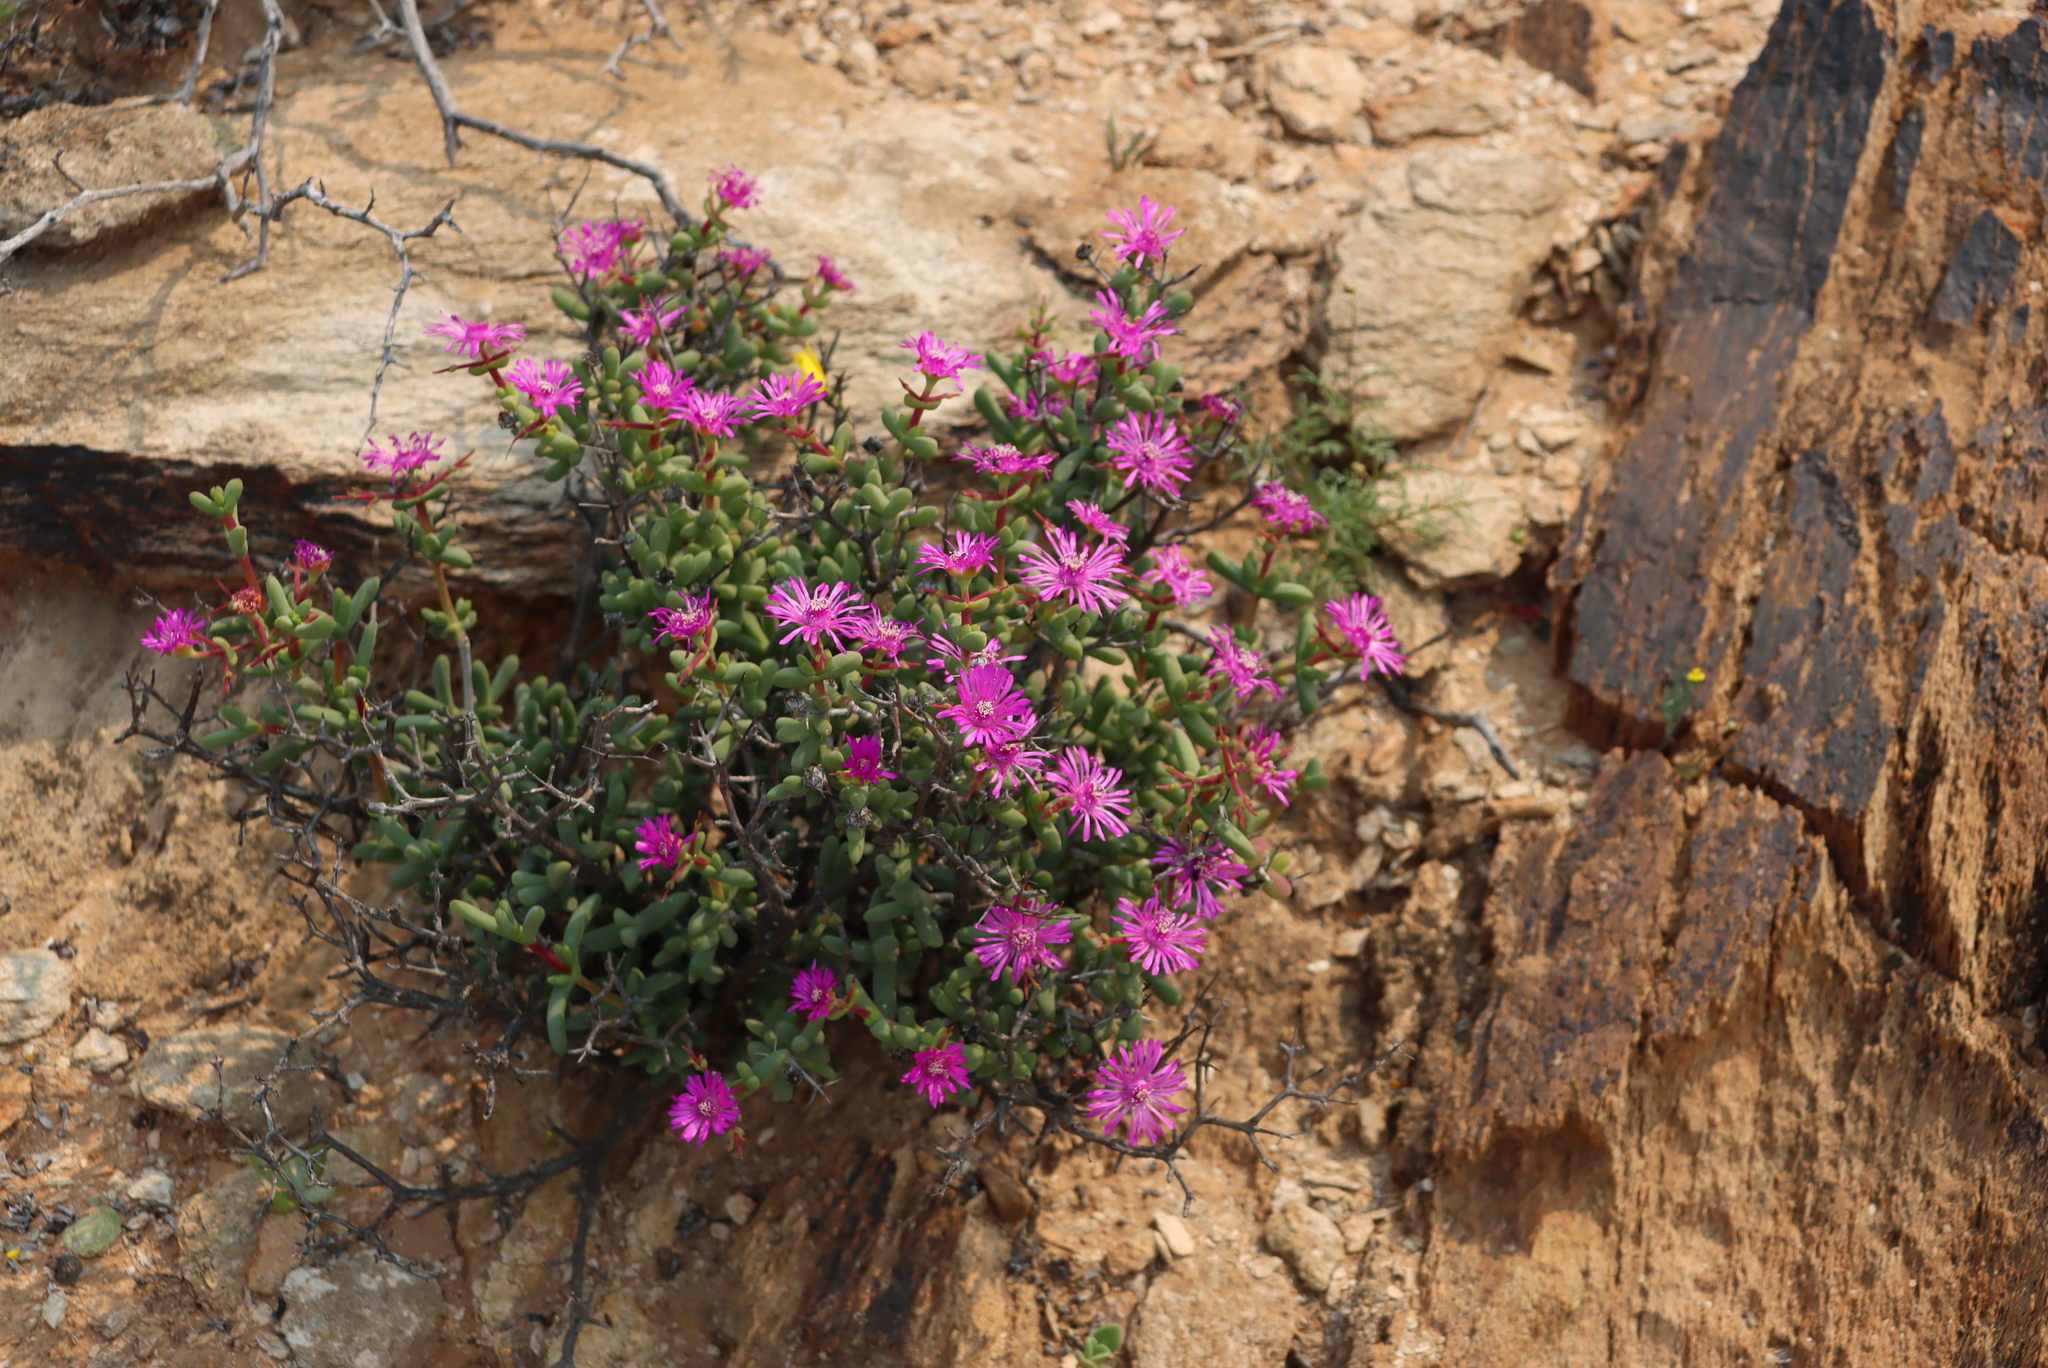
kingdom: Plantae
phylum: Tracheophyta
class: Magnoliopsida
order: Caryophyllales
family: Aizoaceae
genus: Eberlanzia
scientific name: Eberlanzia clausa
